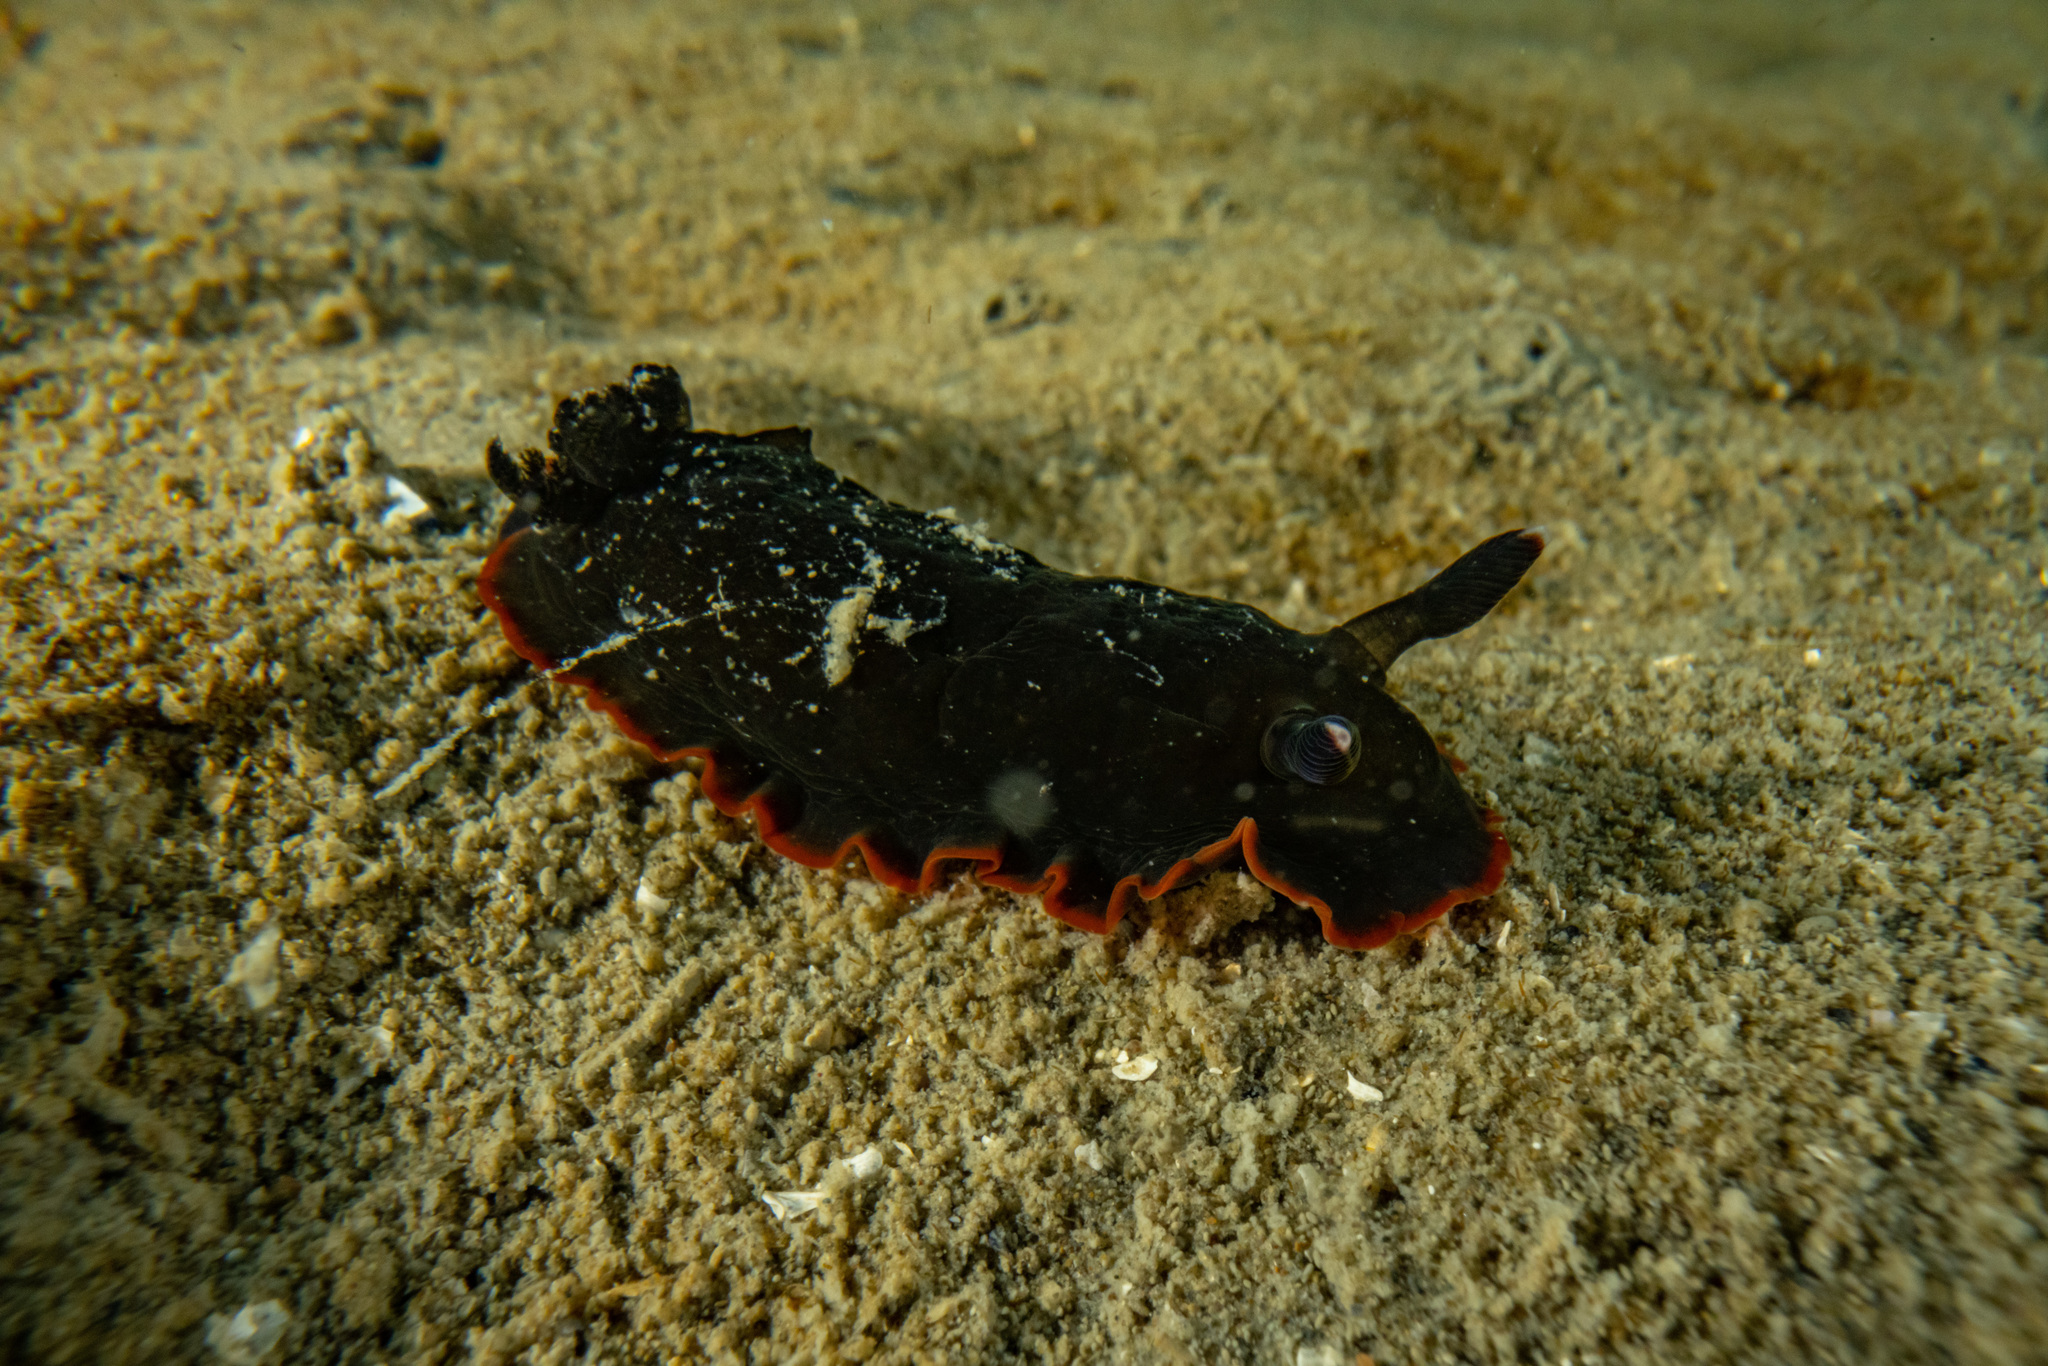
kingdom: Animalia
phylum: Mollusca
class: Gastropoda
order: Nudibranchia
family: Dendrodorididae
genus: Dendrodoris
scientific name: Dendrodoris nigra
